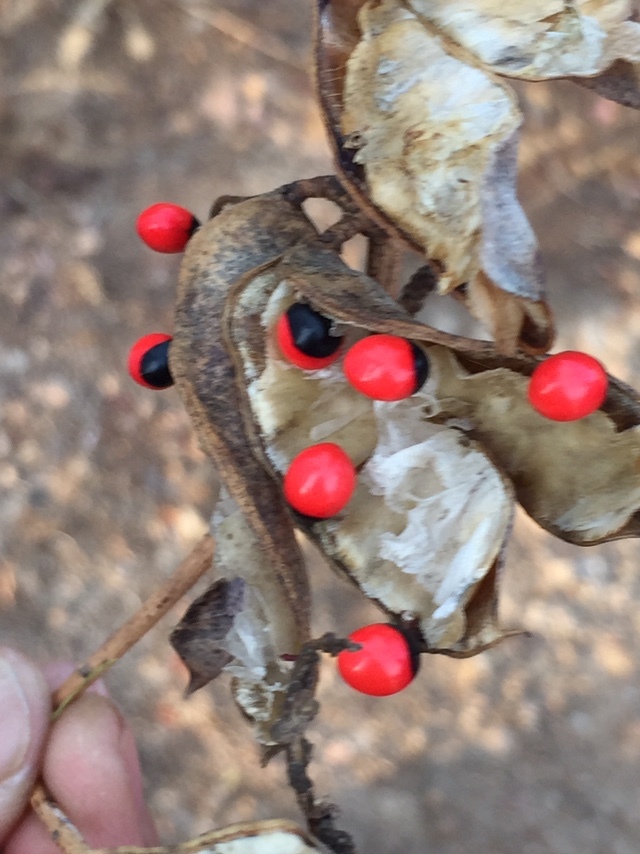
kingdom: Plantae
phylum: Tracheophyta
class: Magnoliopsida
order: Fabales
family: Fabaceae
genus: Abrus
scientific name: Abrus precatorius
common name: Rosarypea
